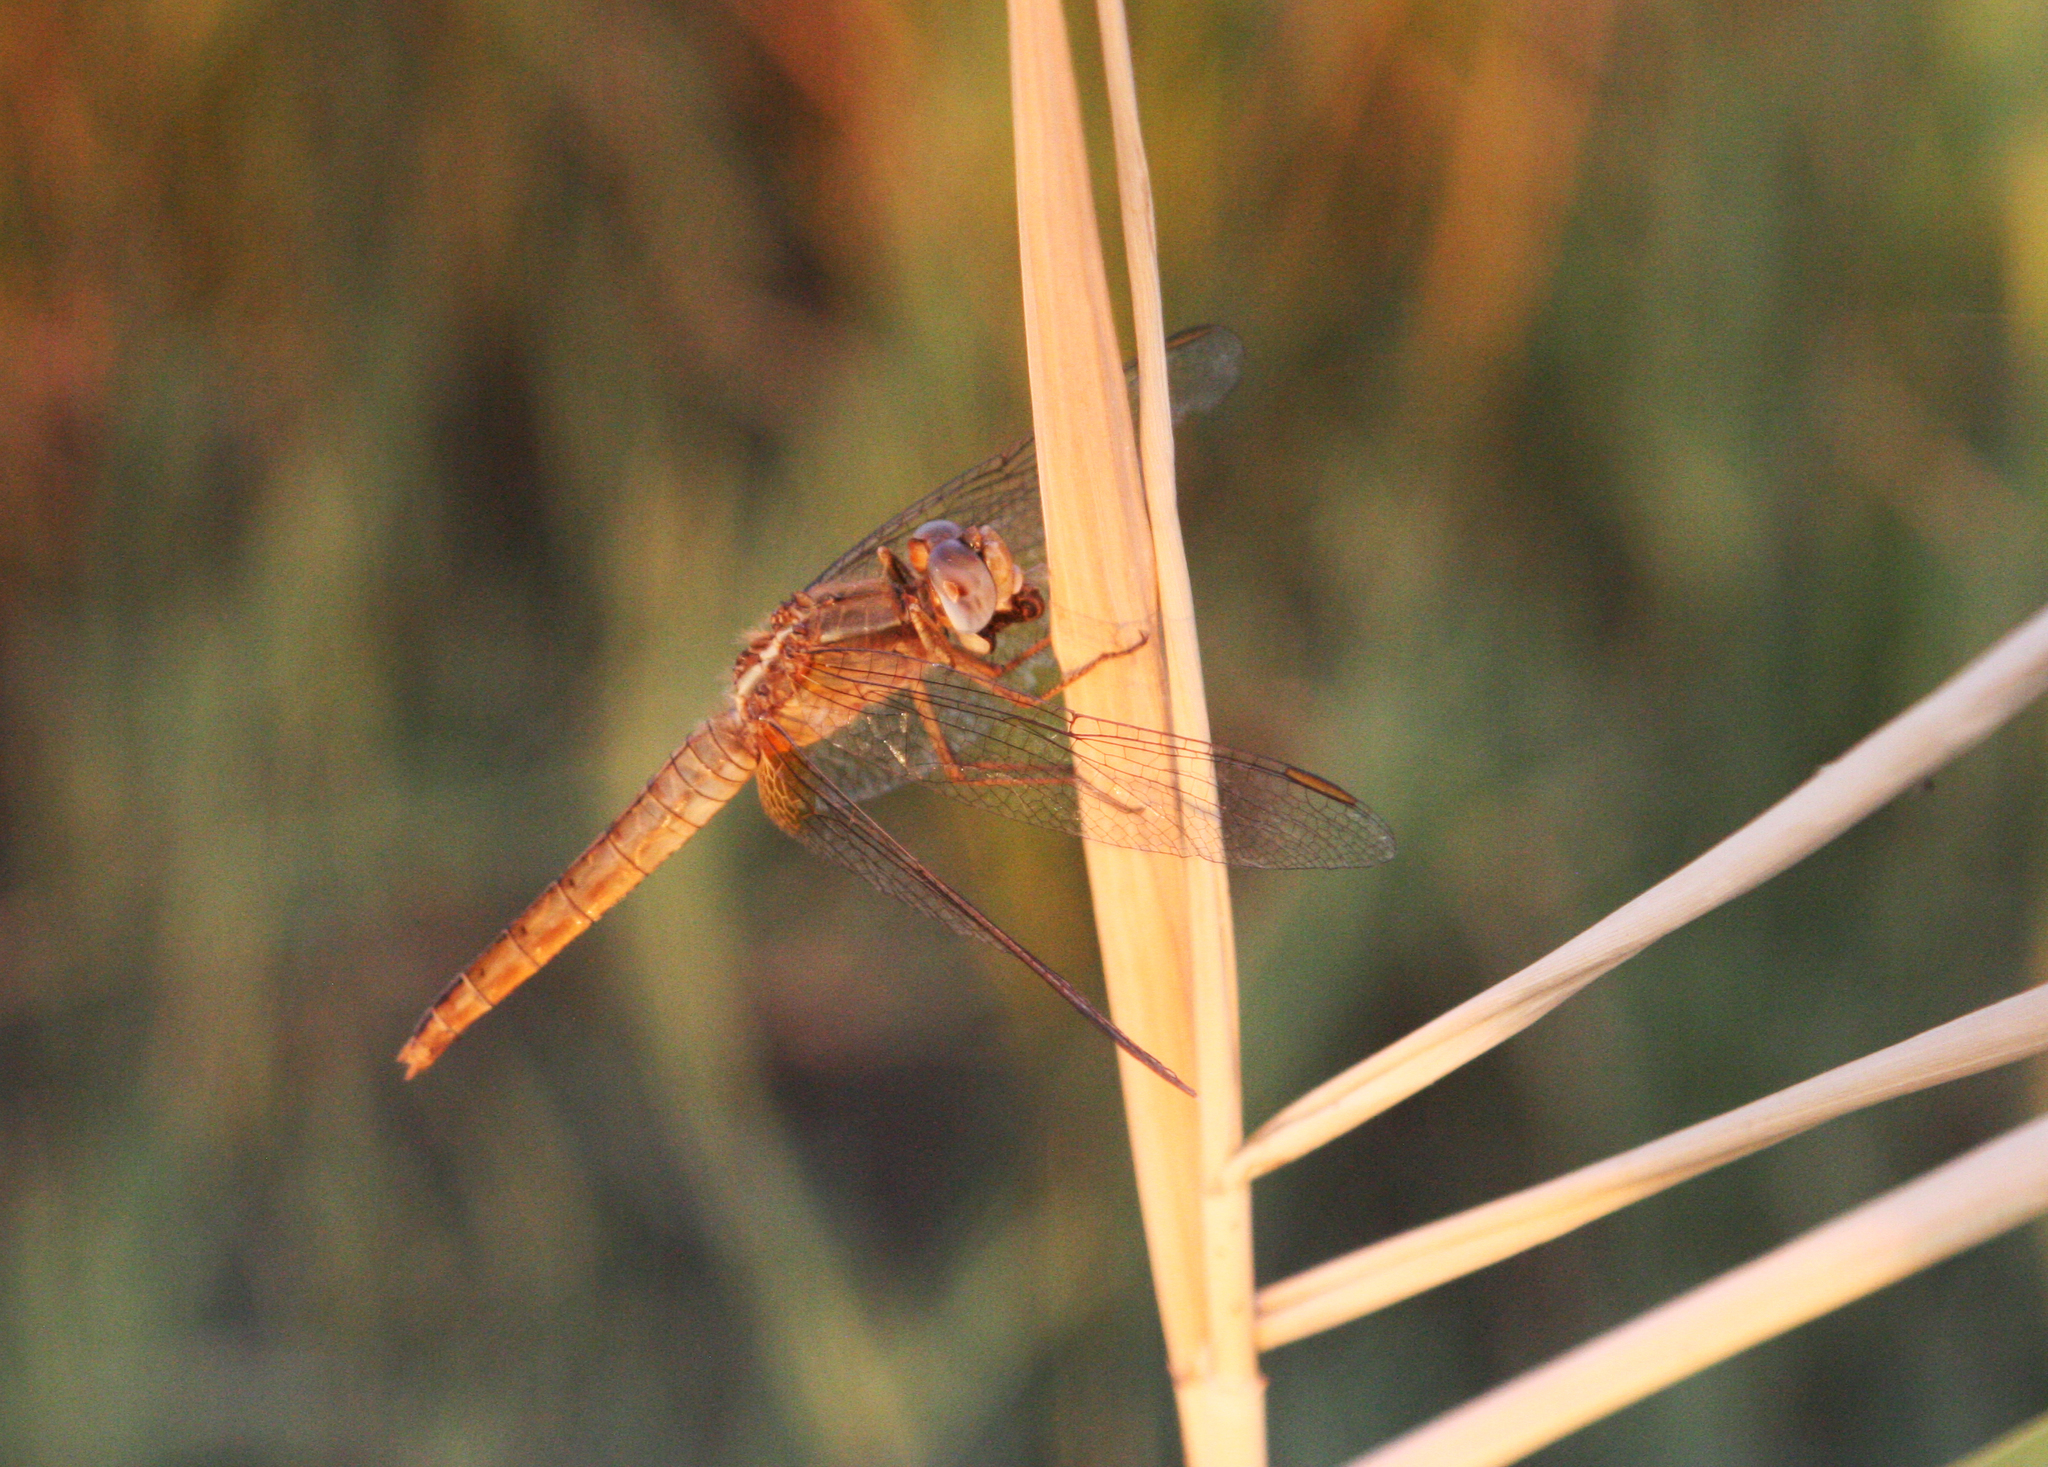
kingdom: Animalia
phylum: Arthropoda
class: Insecta
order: Odonata
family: Libellulidae
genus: Crocothemis
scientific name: Crocothemis erythraea
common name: Scarlet dragonfly
